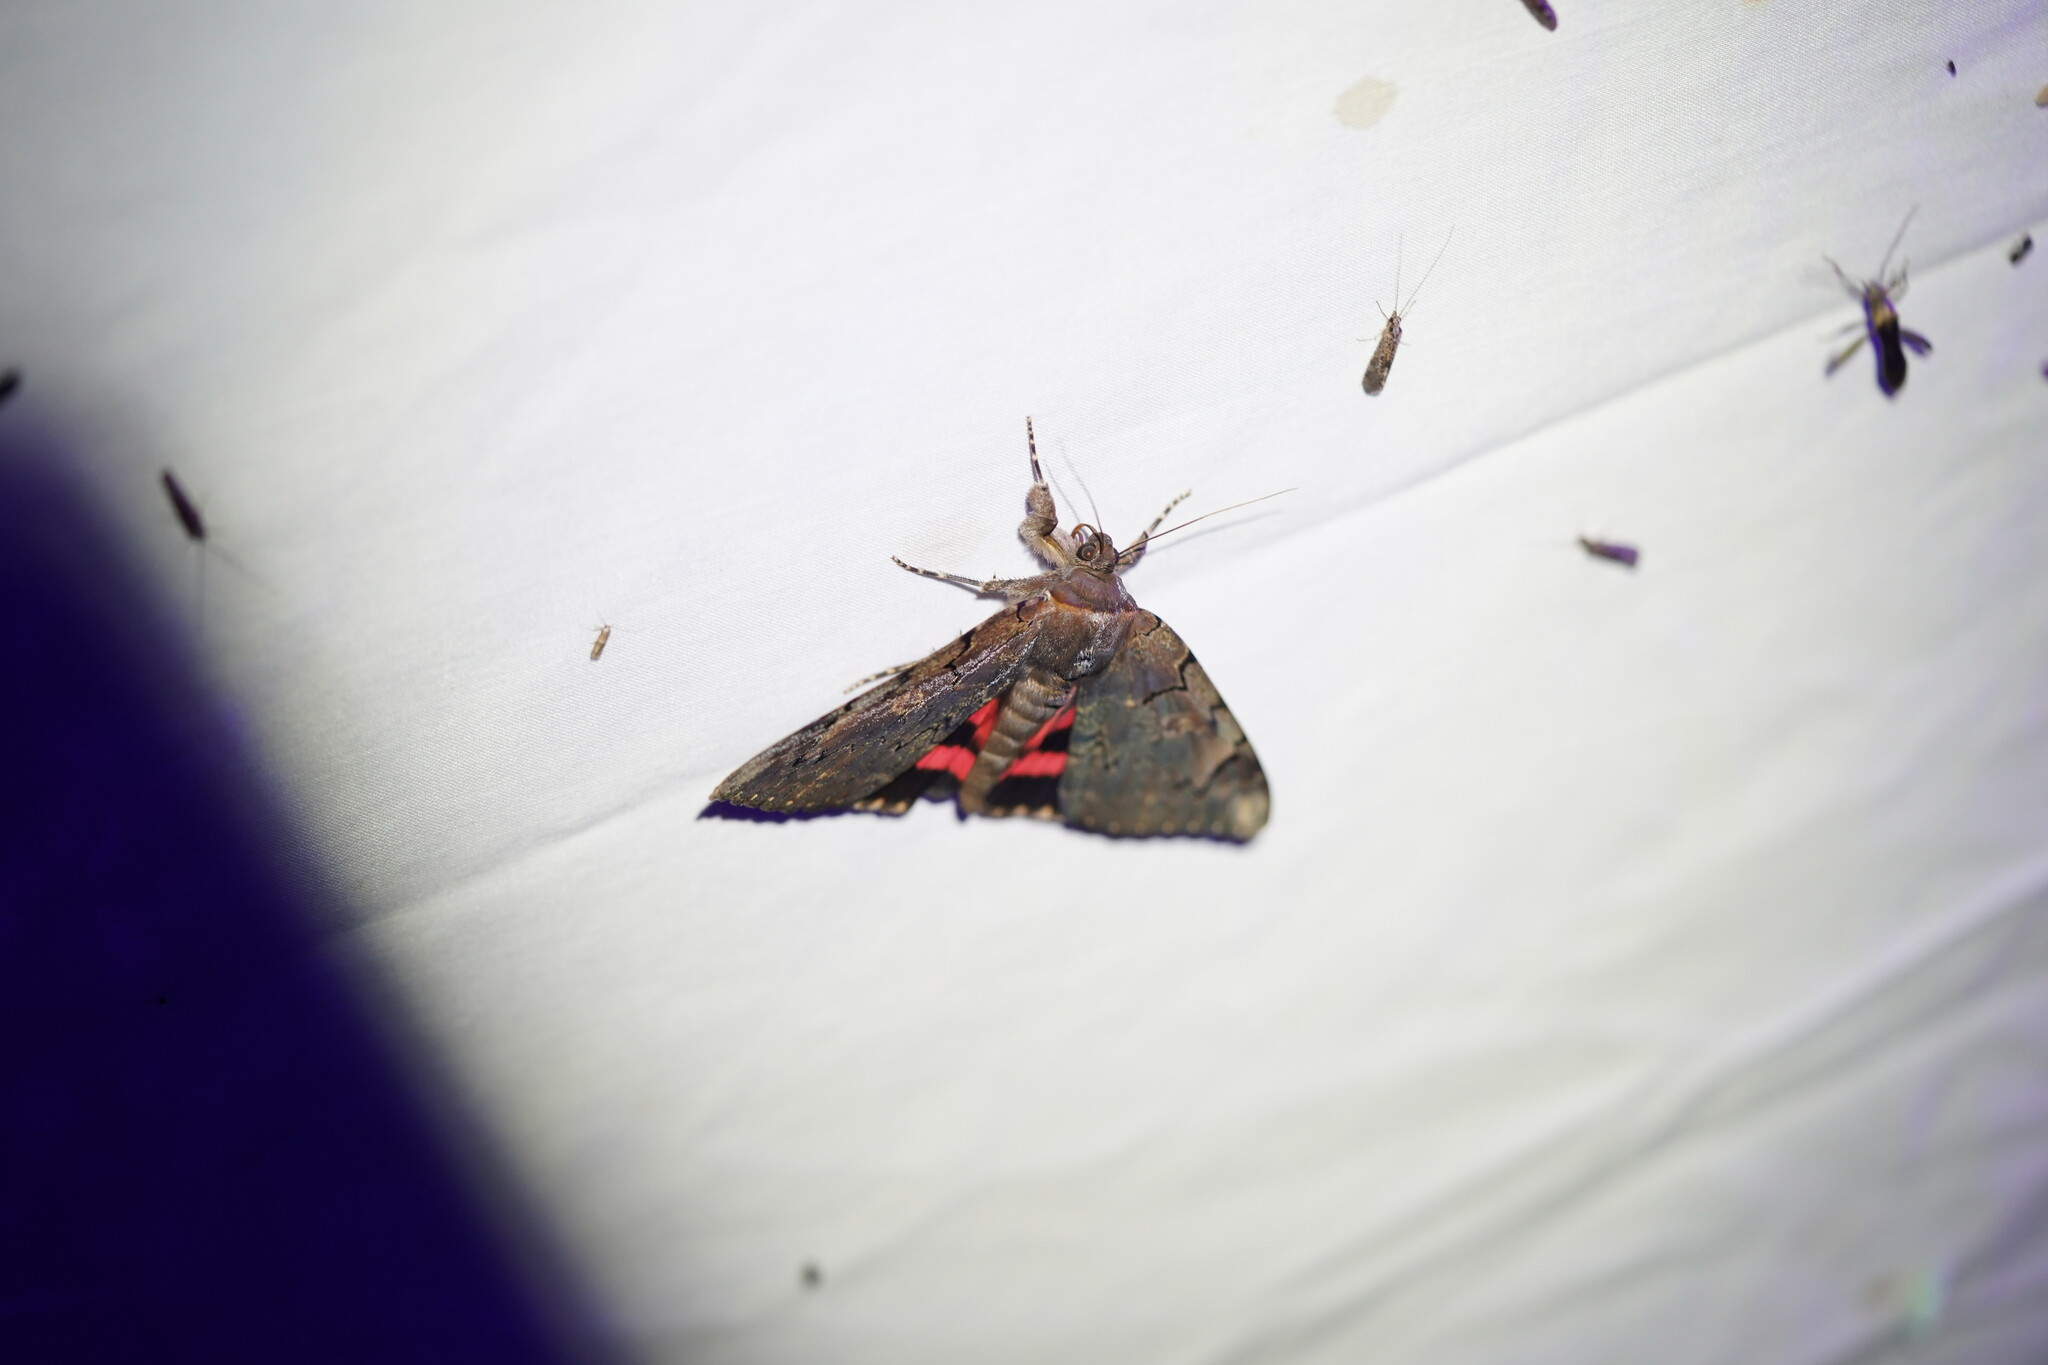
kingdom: Animalia
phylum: Arthropoda
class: Insecta
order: Lepidoptera
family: Erebidae
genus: Catocala
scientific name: Catocala carissima
